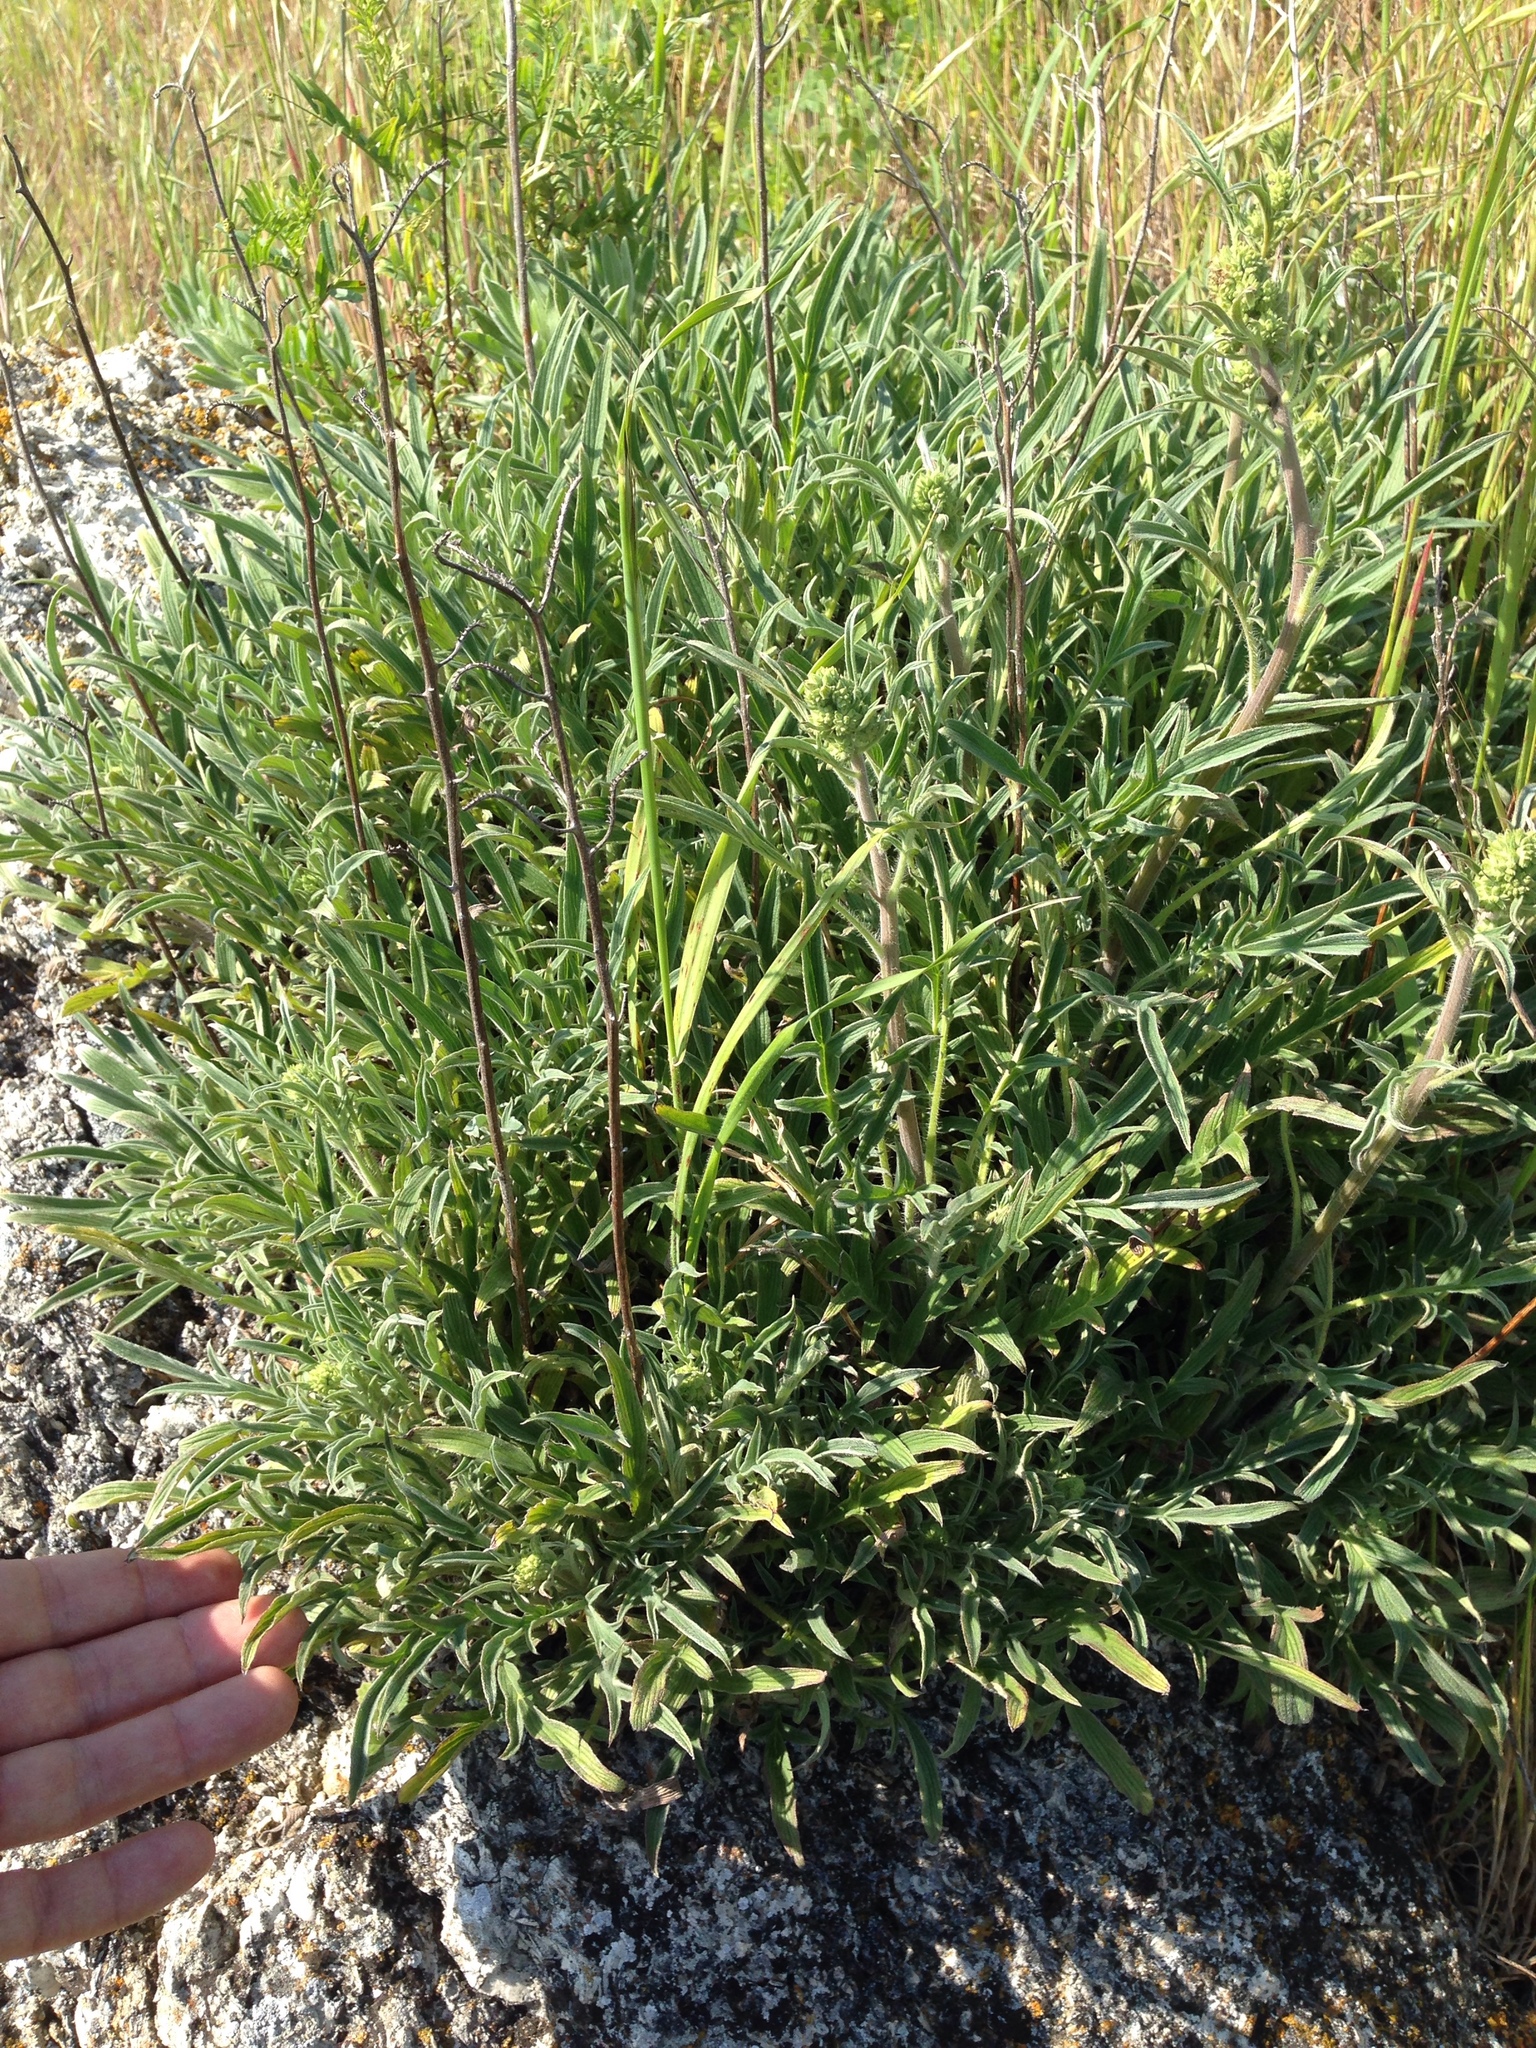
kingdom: Plantae
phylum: Tracheophyta
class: Magnoliopsida
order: Boraginales
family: Hydrophyllaceae
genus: Phacelia
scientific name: Phacelia imbricata
